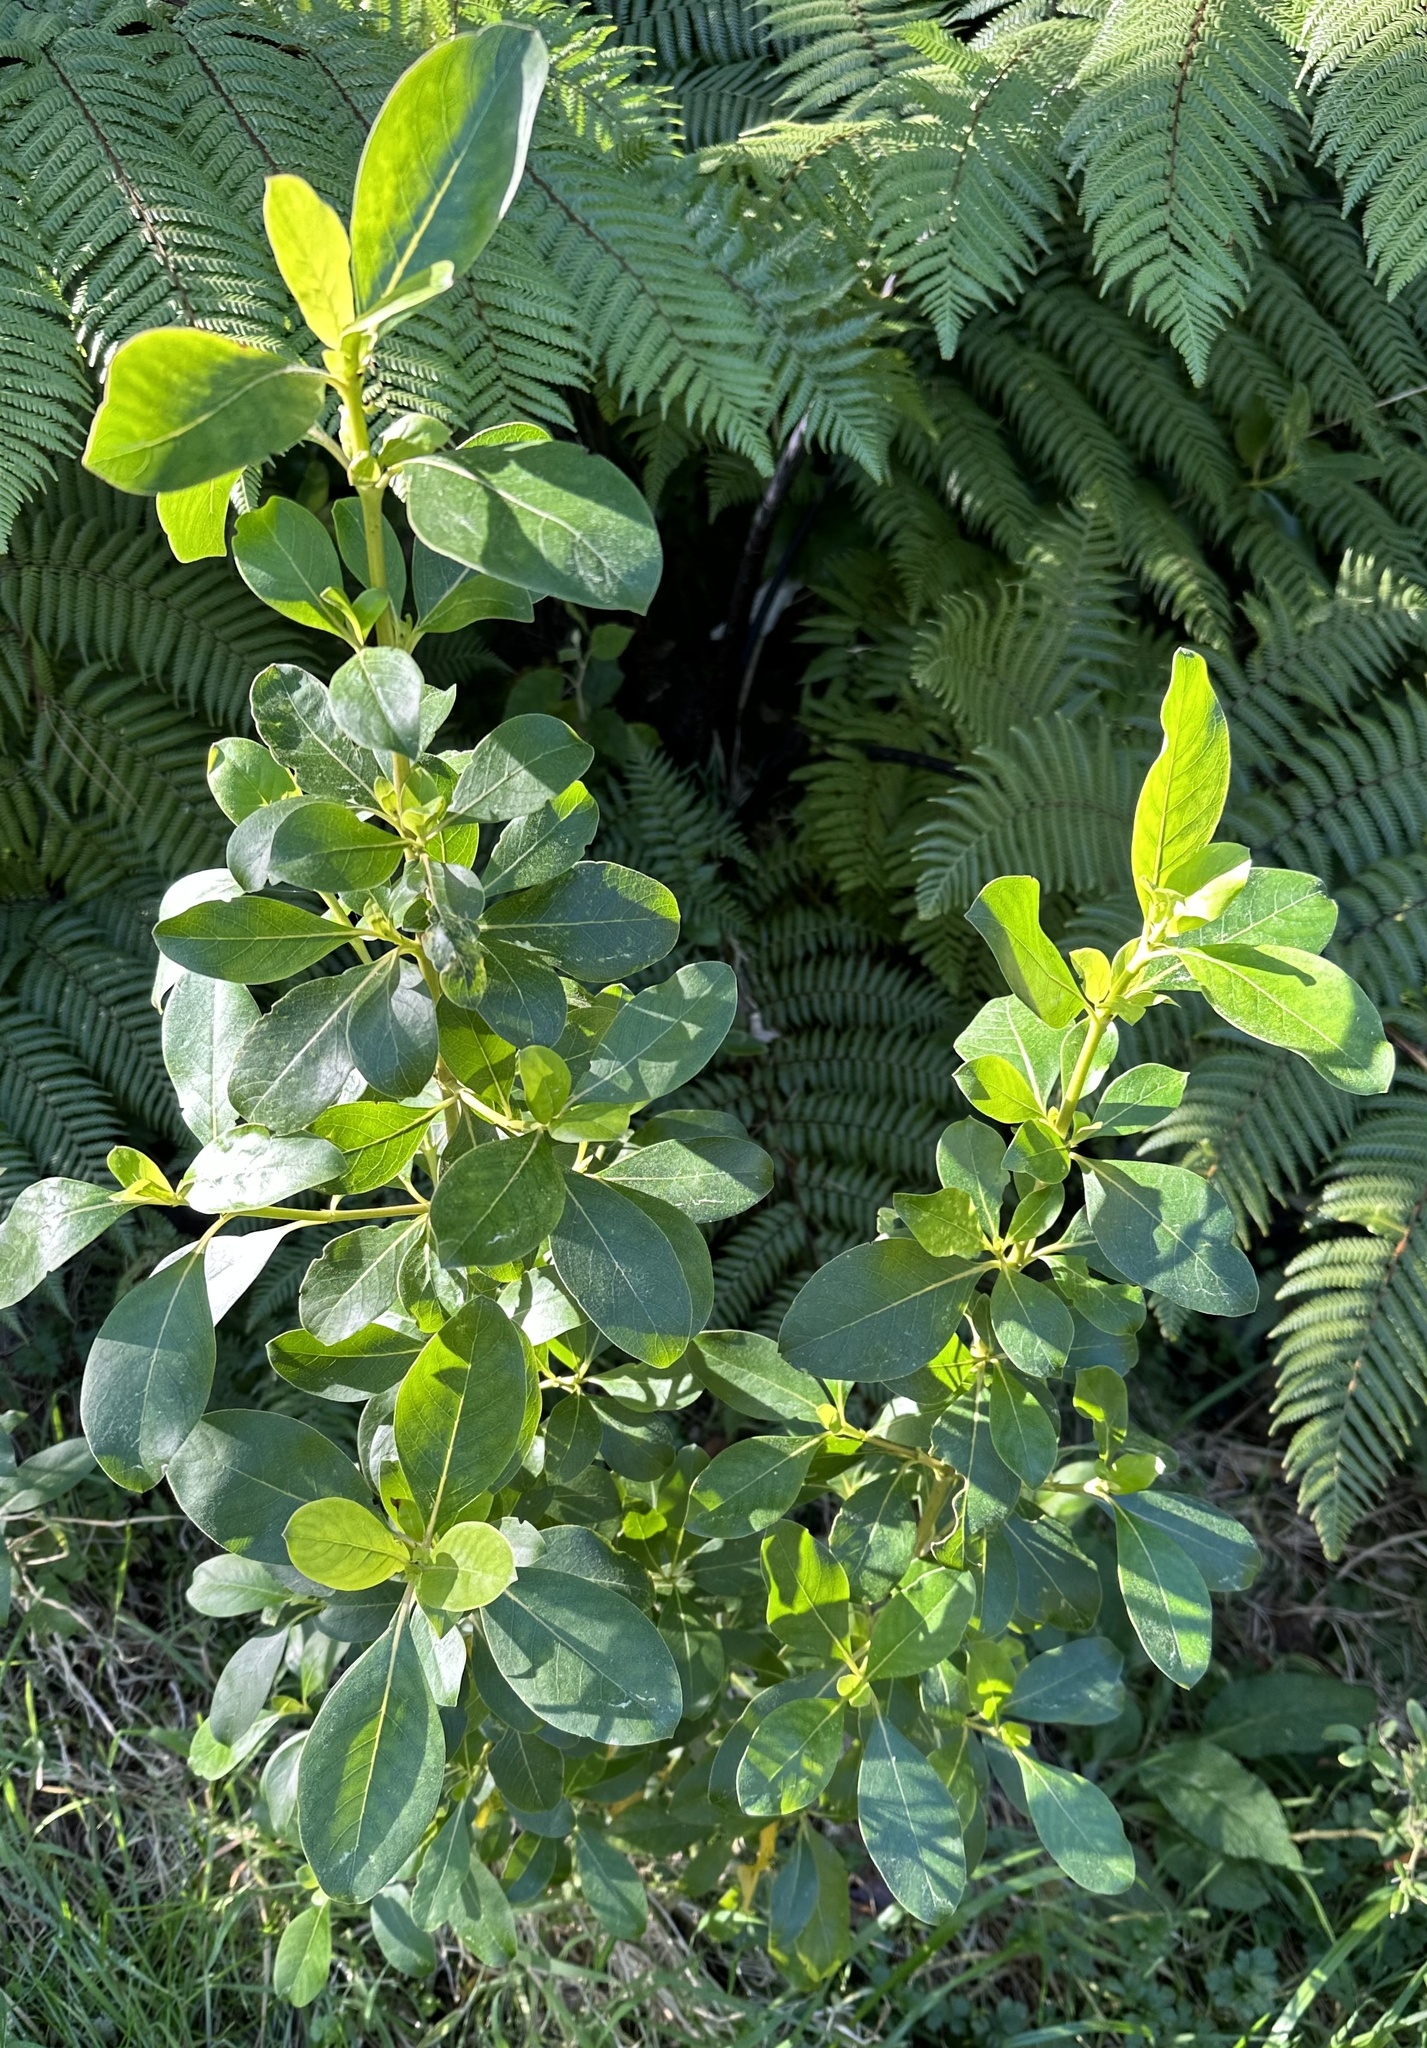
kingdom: Plantae
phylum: Tracheophyta
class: Magnoliopsida
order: Gentianales
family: Rubiaceae
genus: Coprosma
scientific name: Coprosma robusta
